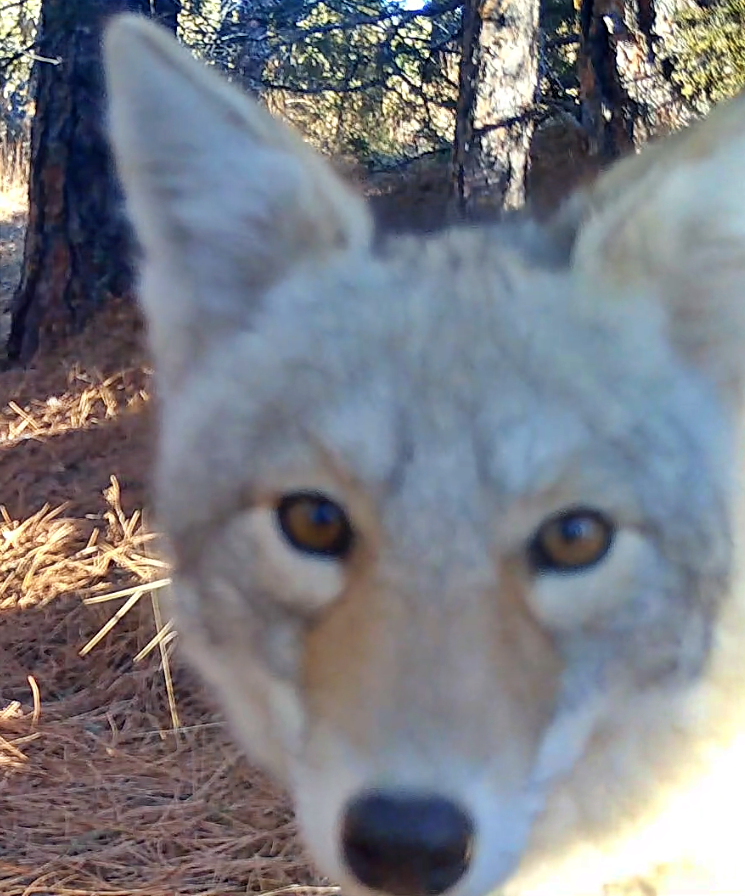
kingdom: Animalia
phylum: Chordata
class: Mammalia
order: Carnivora
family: Canidae
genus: Canis
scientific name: Canis latrans
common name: Coyote
